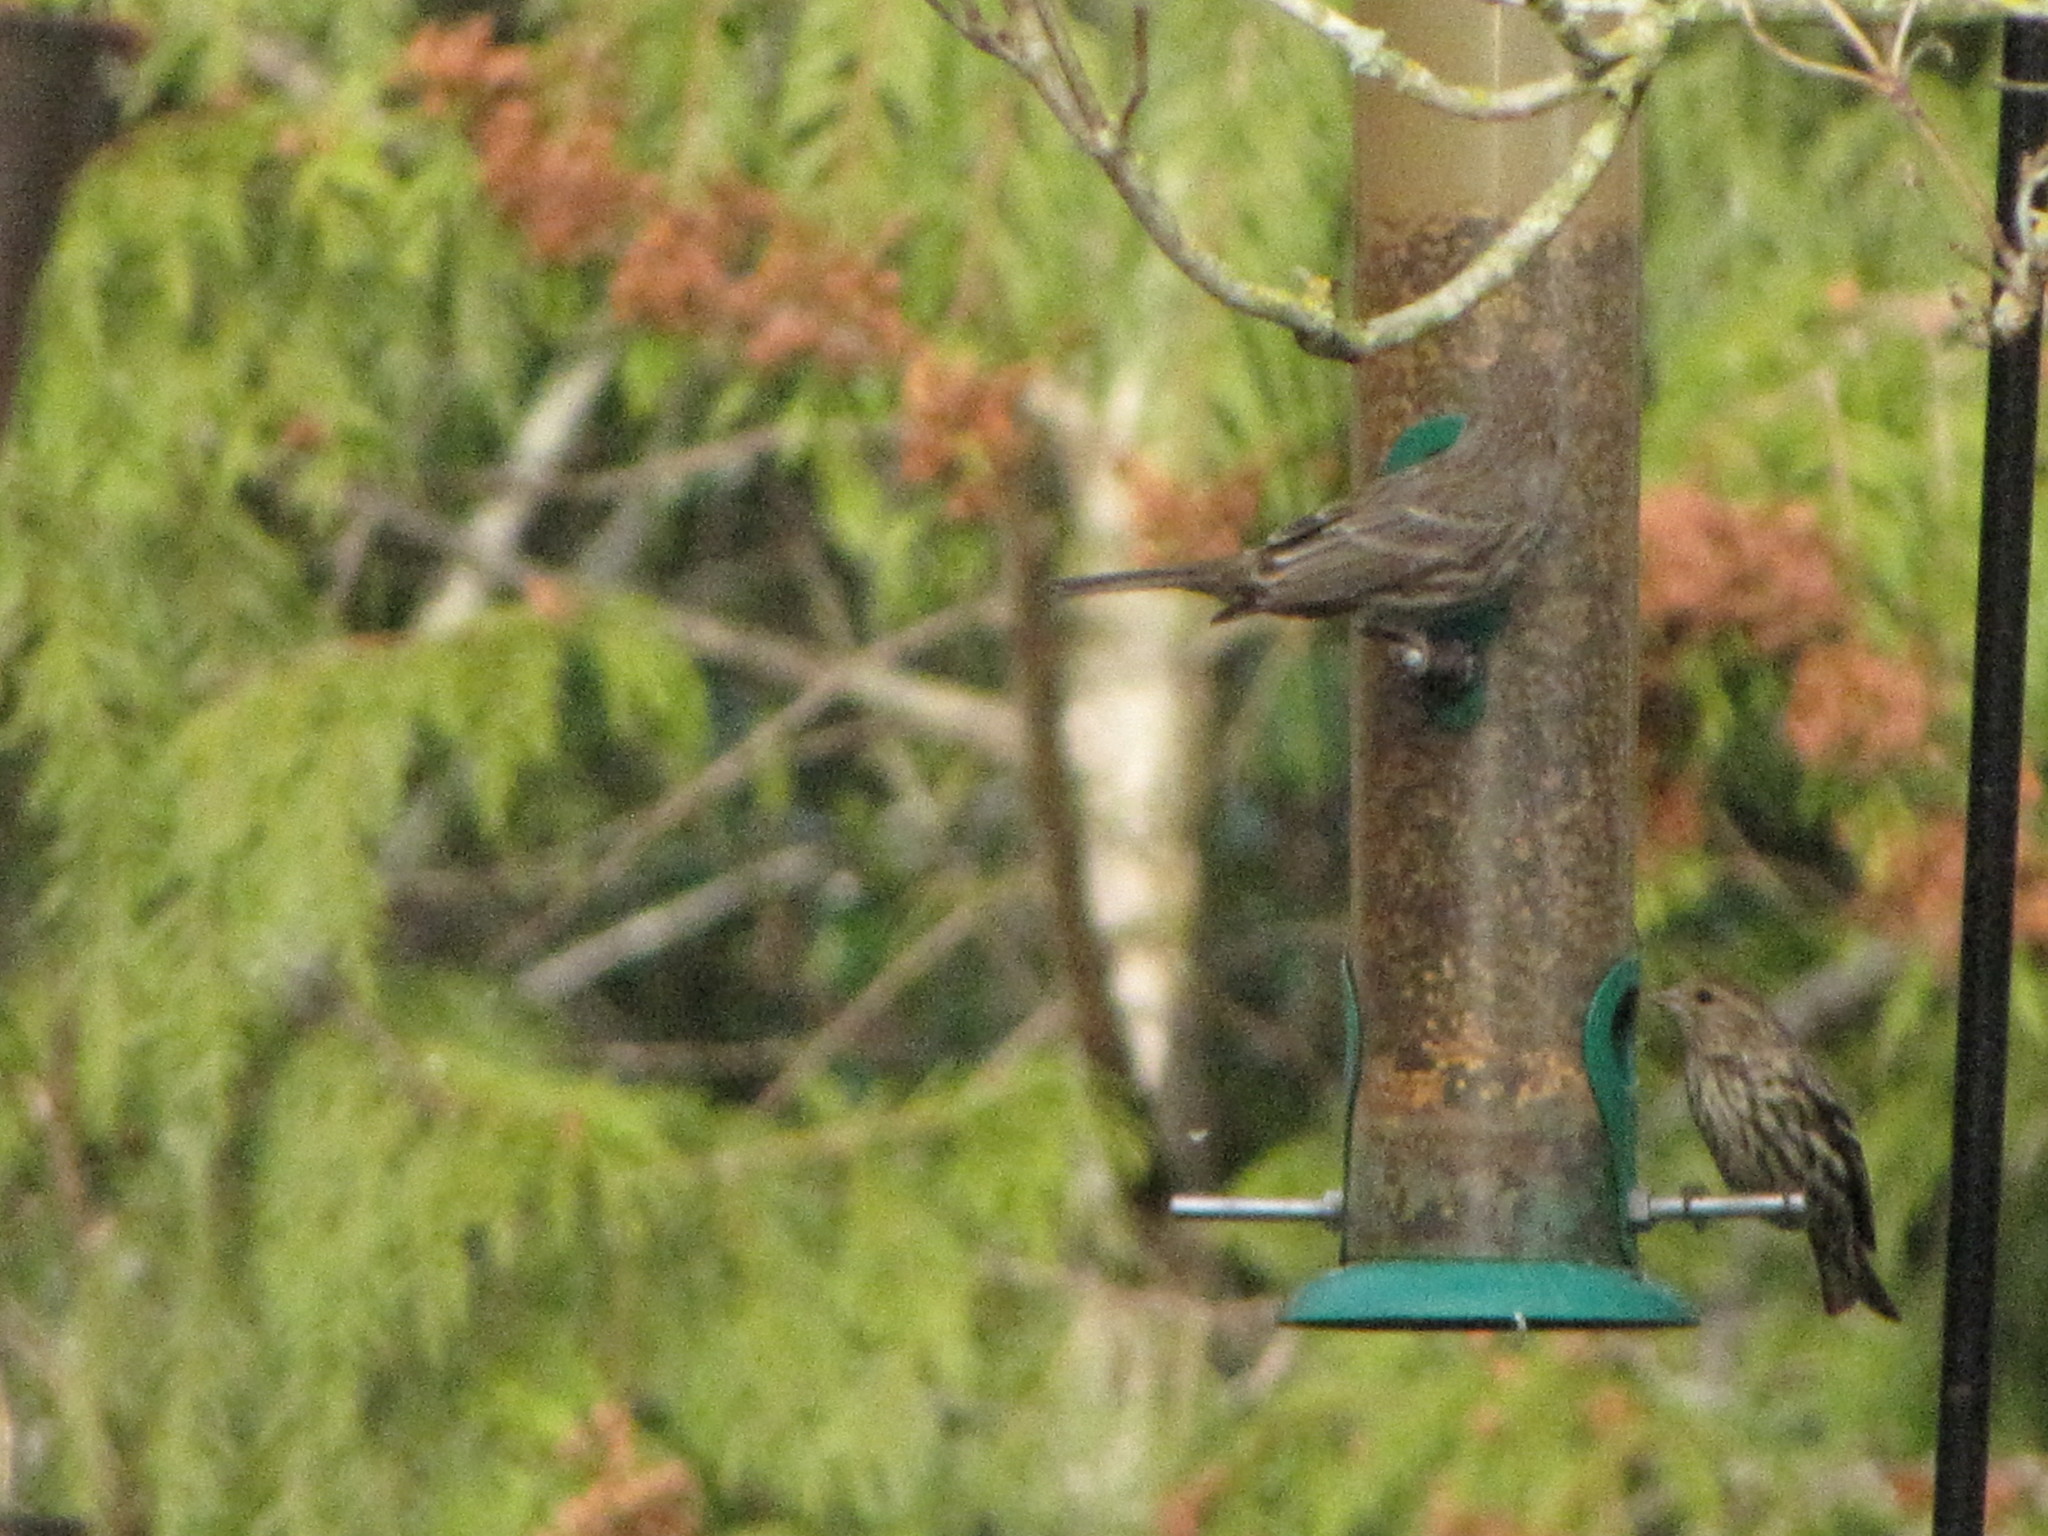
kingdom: Animalia
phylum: Chordata
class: Aves
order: Passeriformes
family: Fringillidae
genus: Spinus
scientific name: Spinus pinus
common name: Pine siskin
